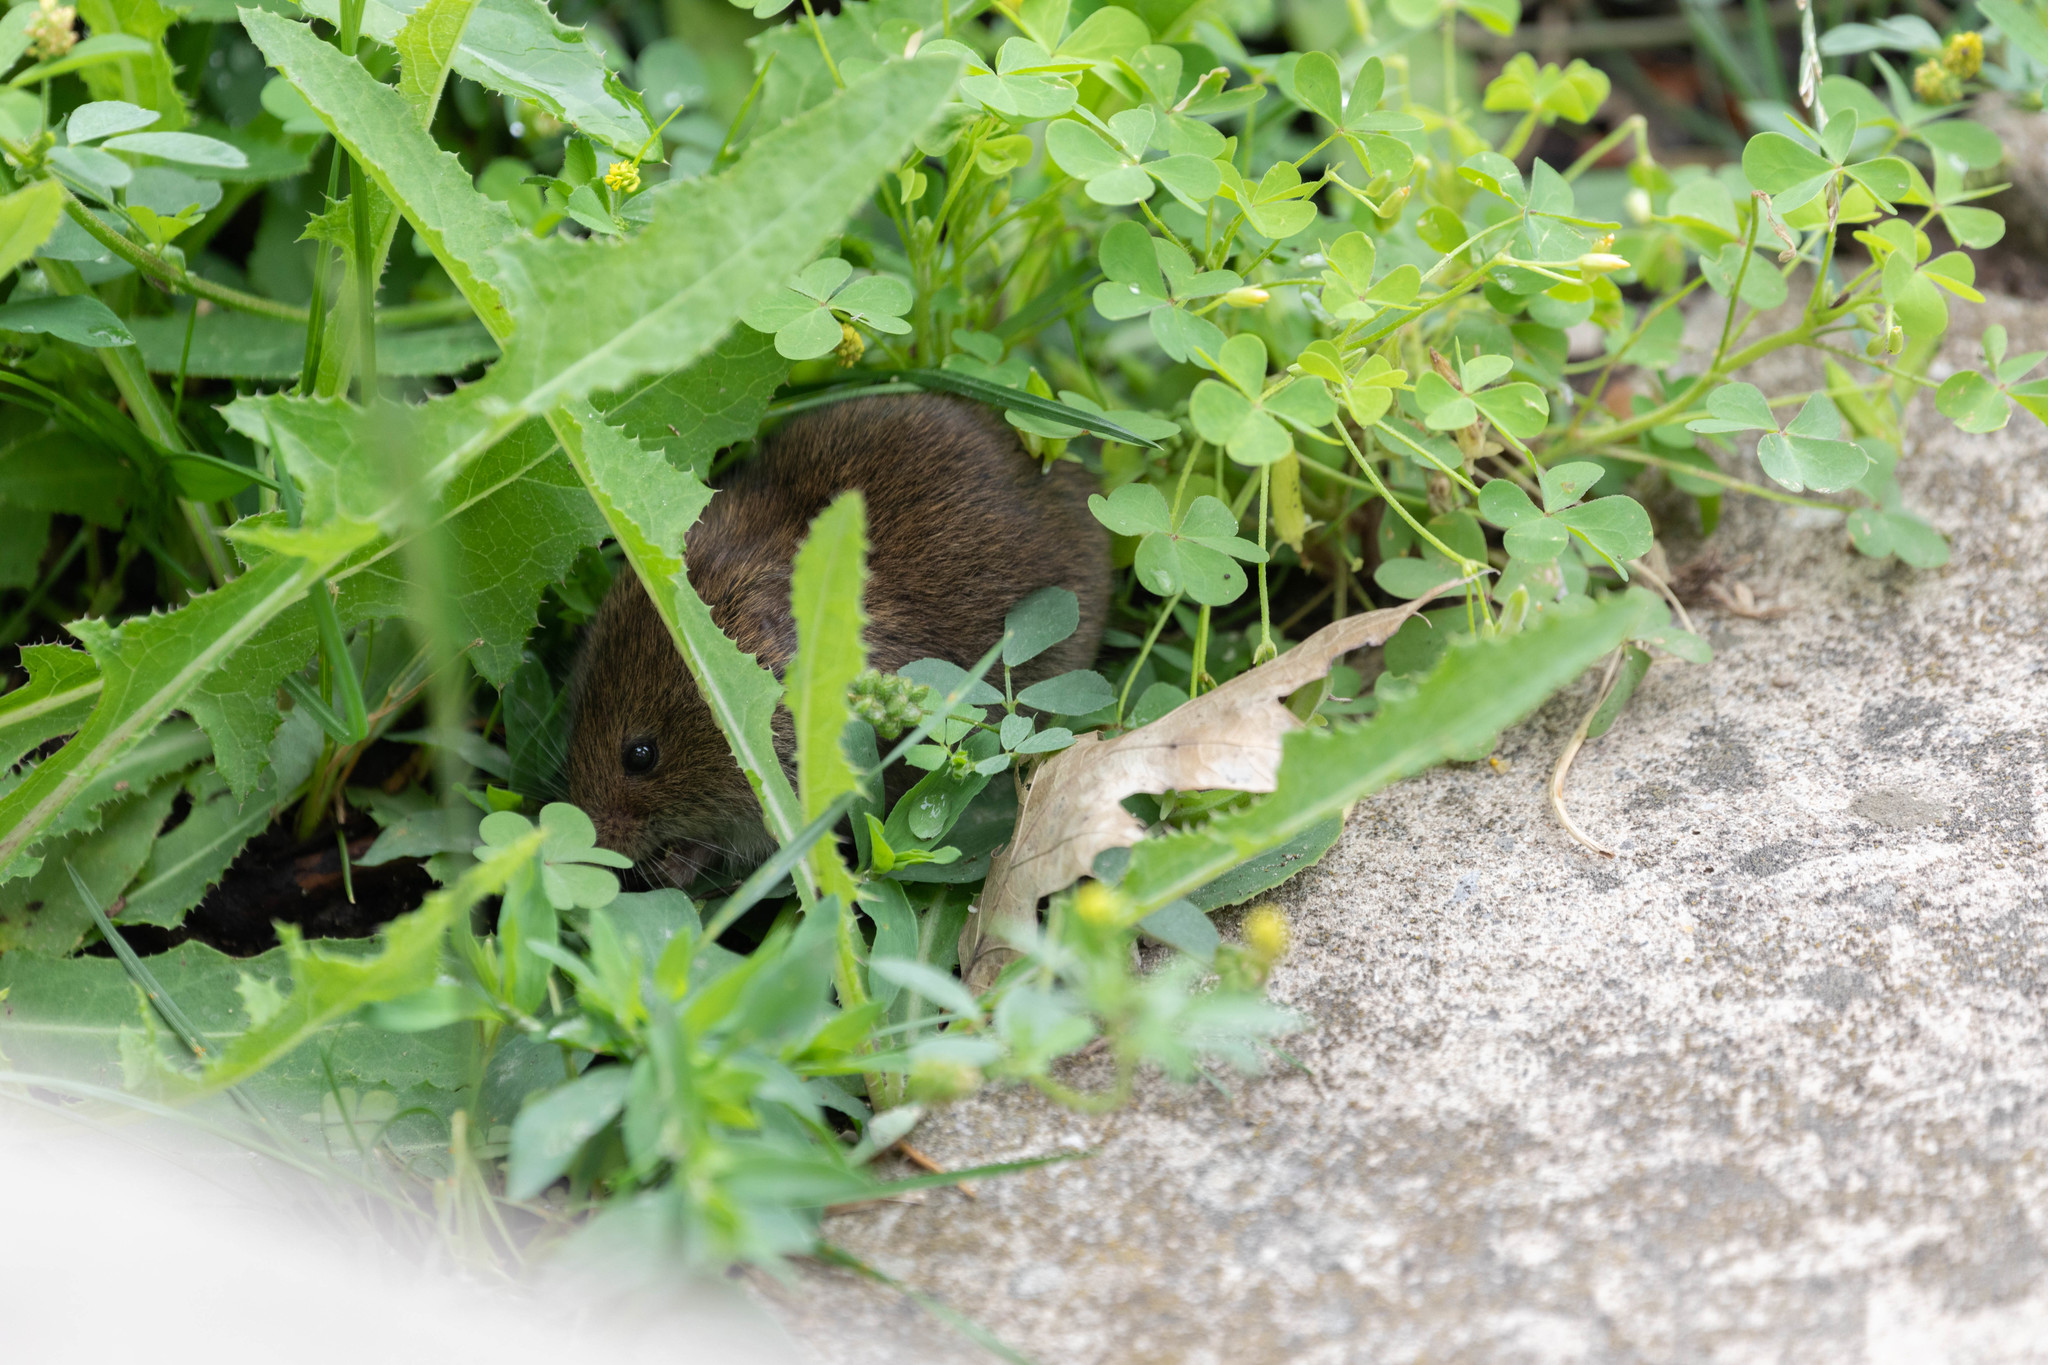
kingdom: Animalia
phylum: Chordata
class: Mammalia
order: Rodentia
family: Cricetidae
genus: Microtus
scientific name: Microtus pennsylvanicus
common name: Meadow vole
